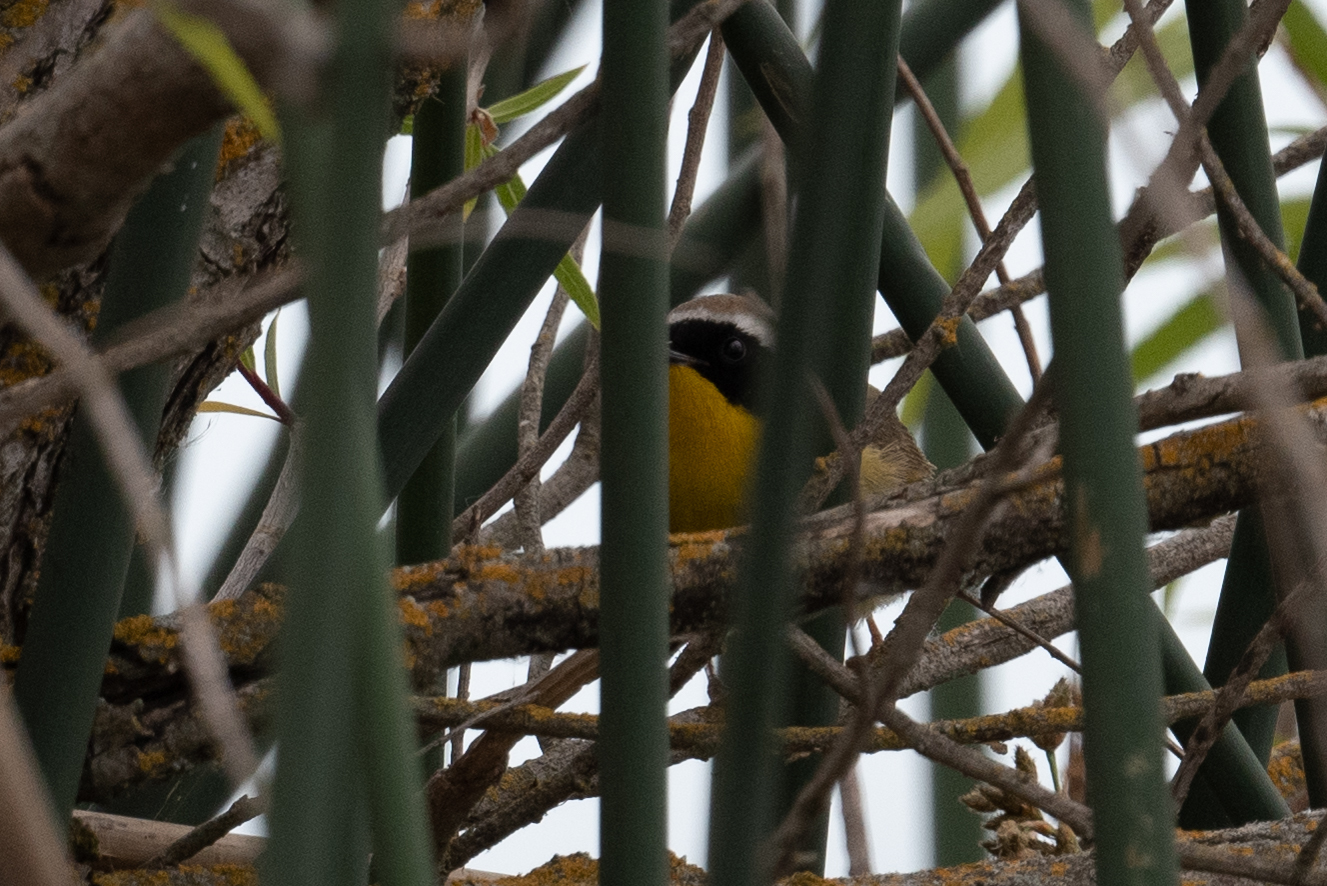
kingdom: Animalia
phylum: Chordata
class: Aves
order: Passeriformes
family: Parulidae
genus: Geothlypis
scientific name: Geothlypis trichas
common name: Common yellowthroat
